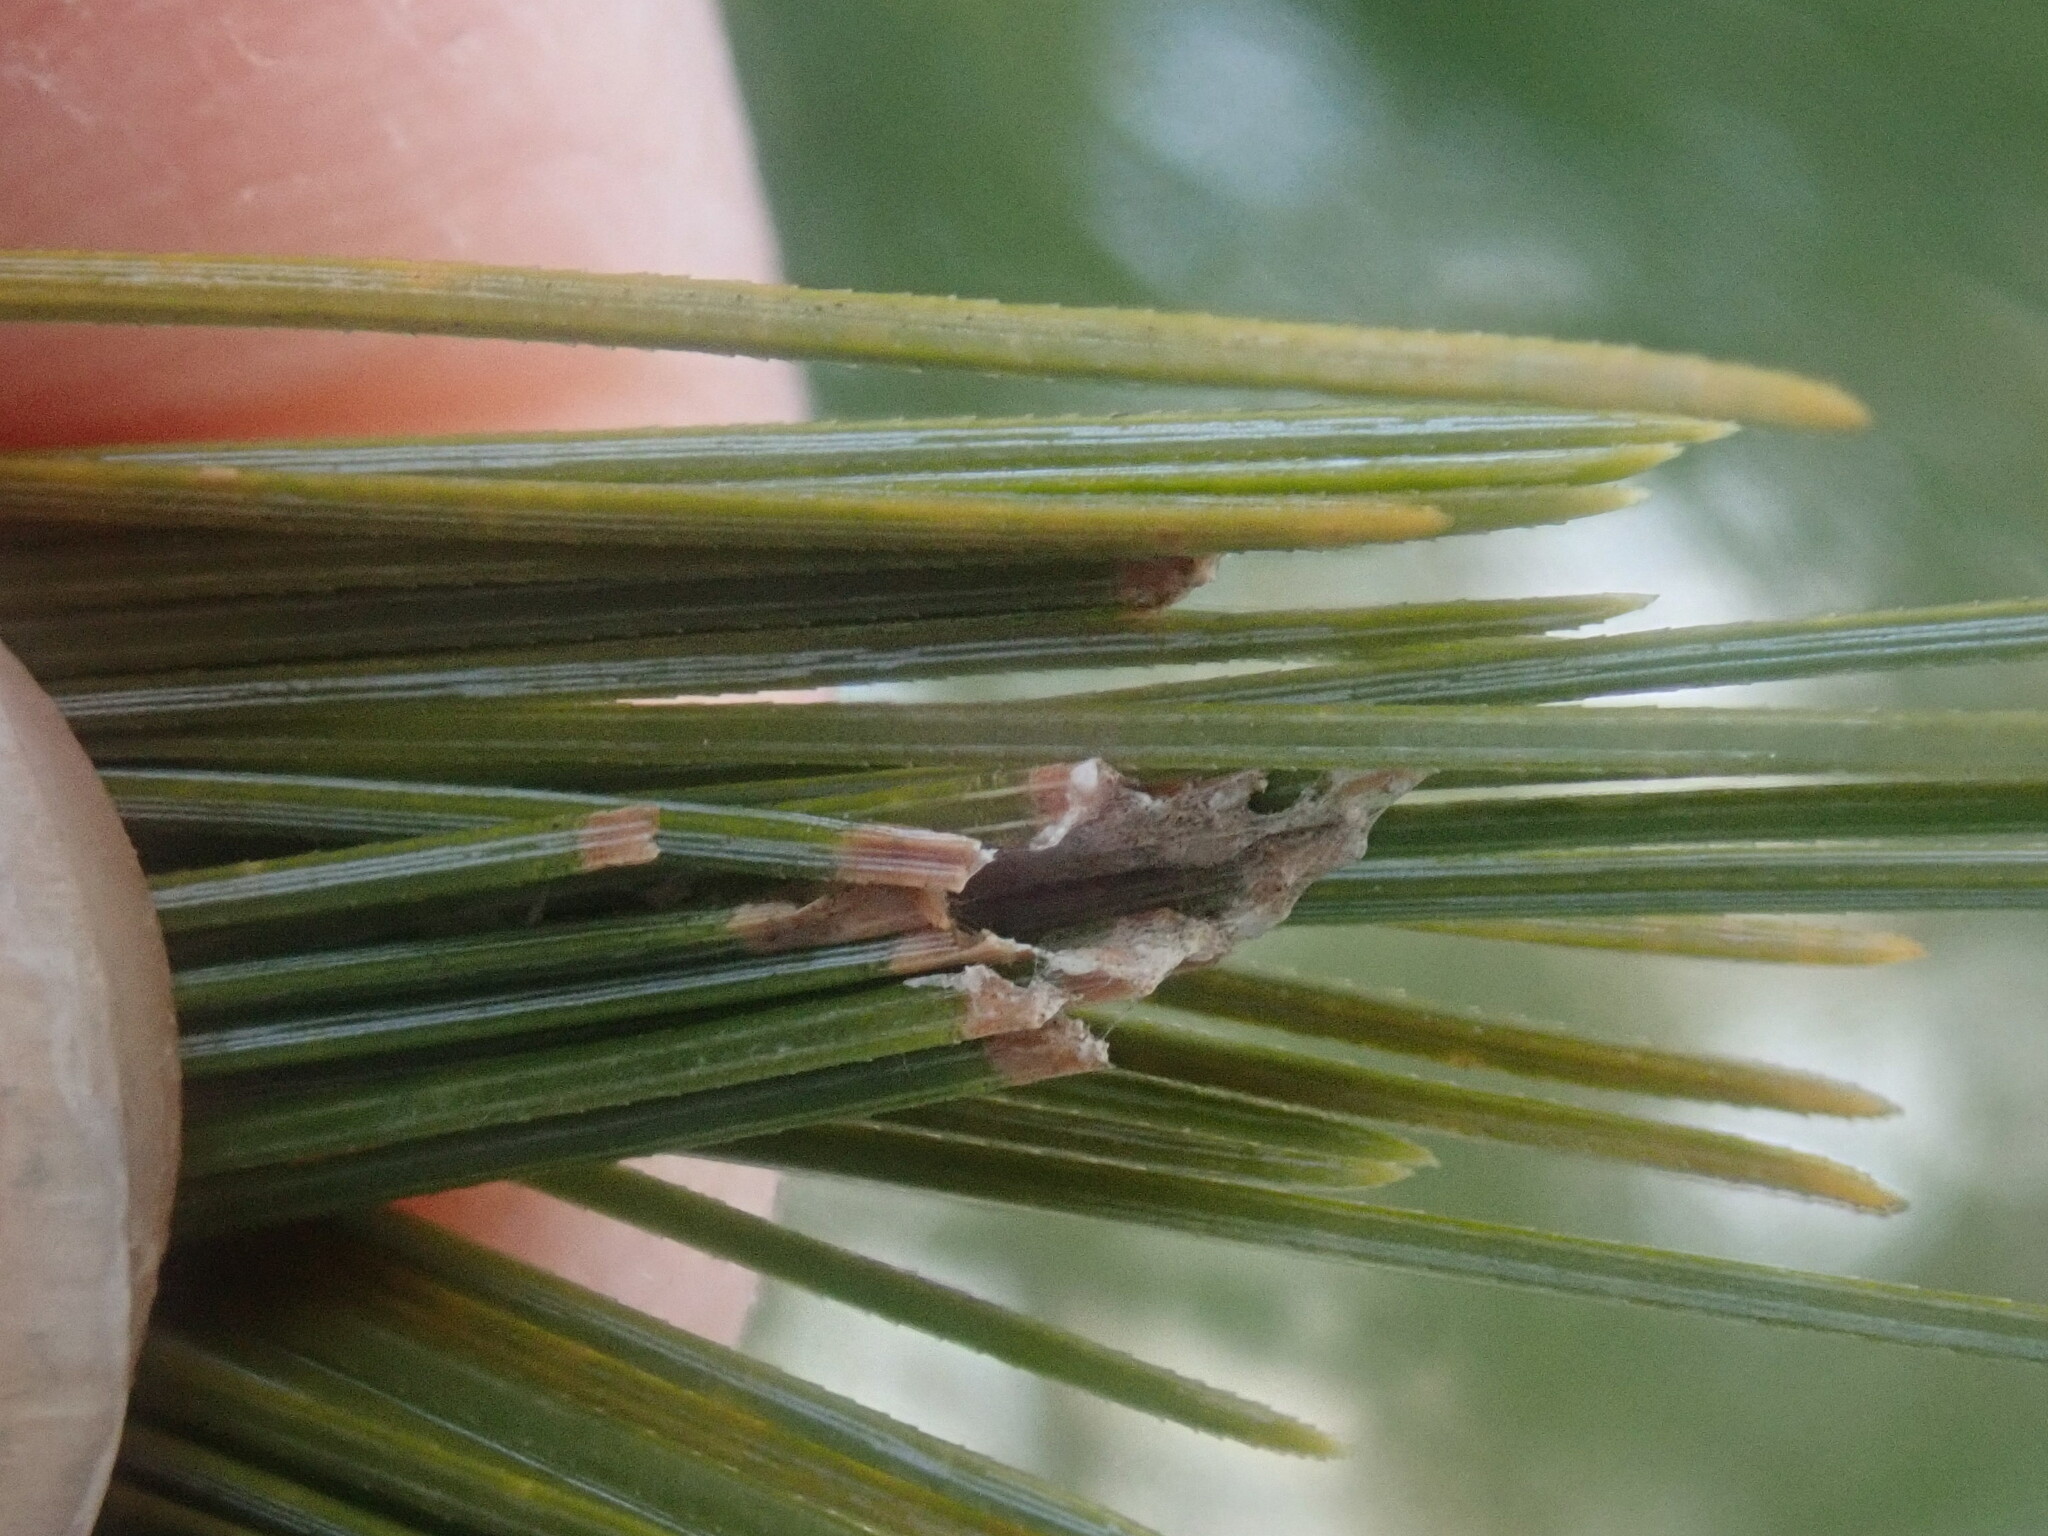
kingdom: Animalia
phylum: Arthropoda
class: Insecta
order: Lepidoptera
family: Tortricidae
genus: Argyrotaenia
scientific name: Argyrotaenia pinatubana
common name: Pine tube moth
